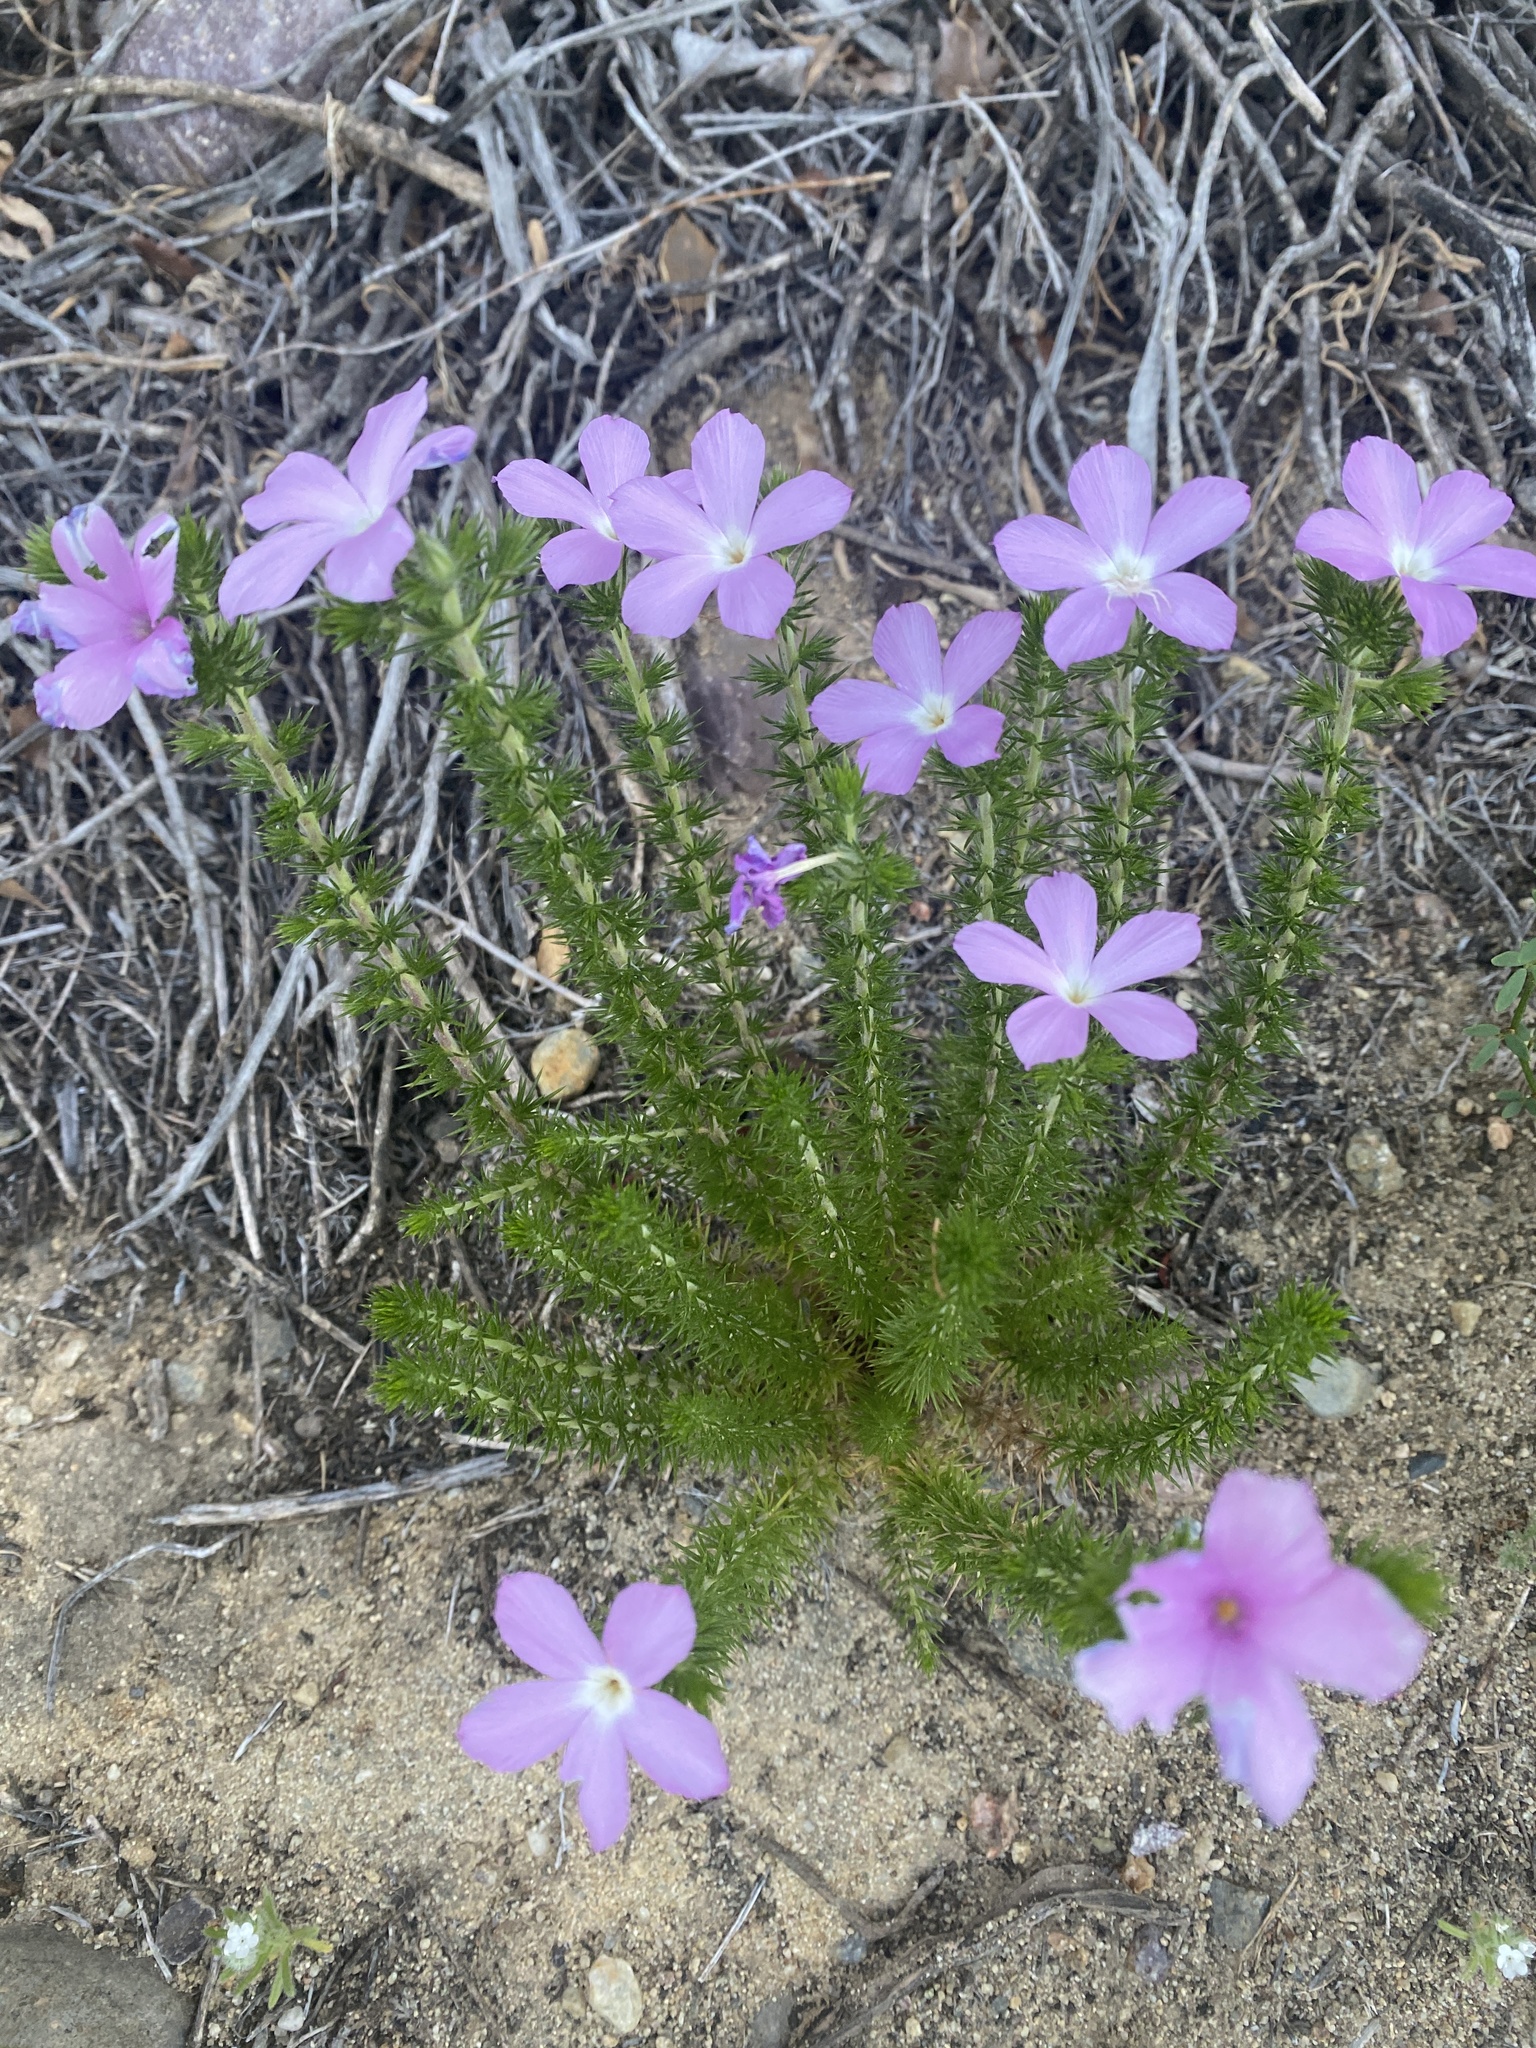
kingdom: Plantae
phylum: Tracheophyta
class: Magnoliopsida
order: Ericales
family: Polemoniaceae
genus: Linanthus
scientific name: Linanthus californicus
